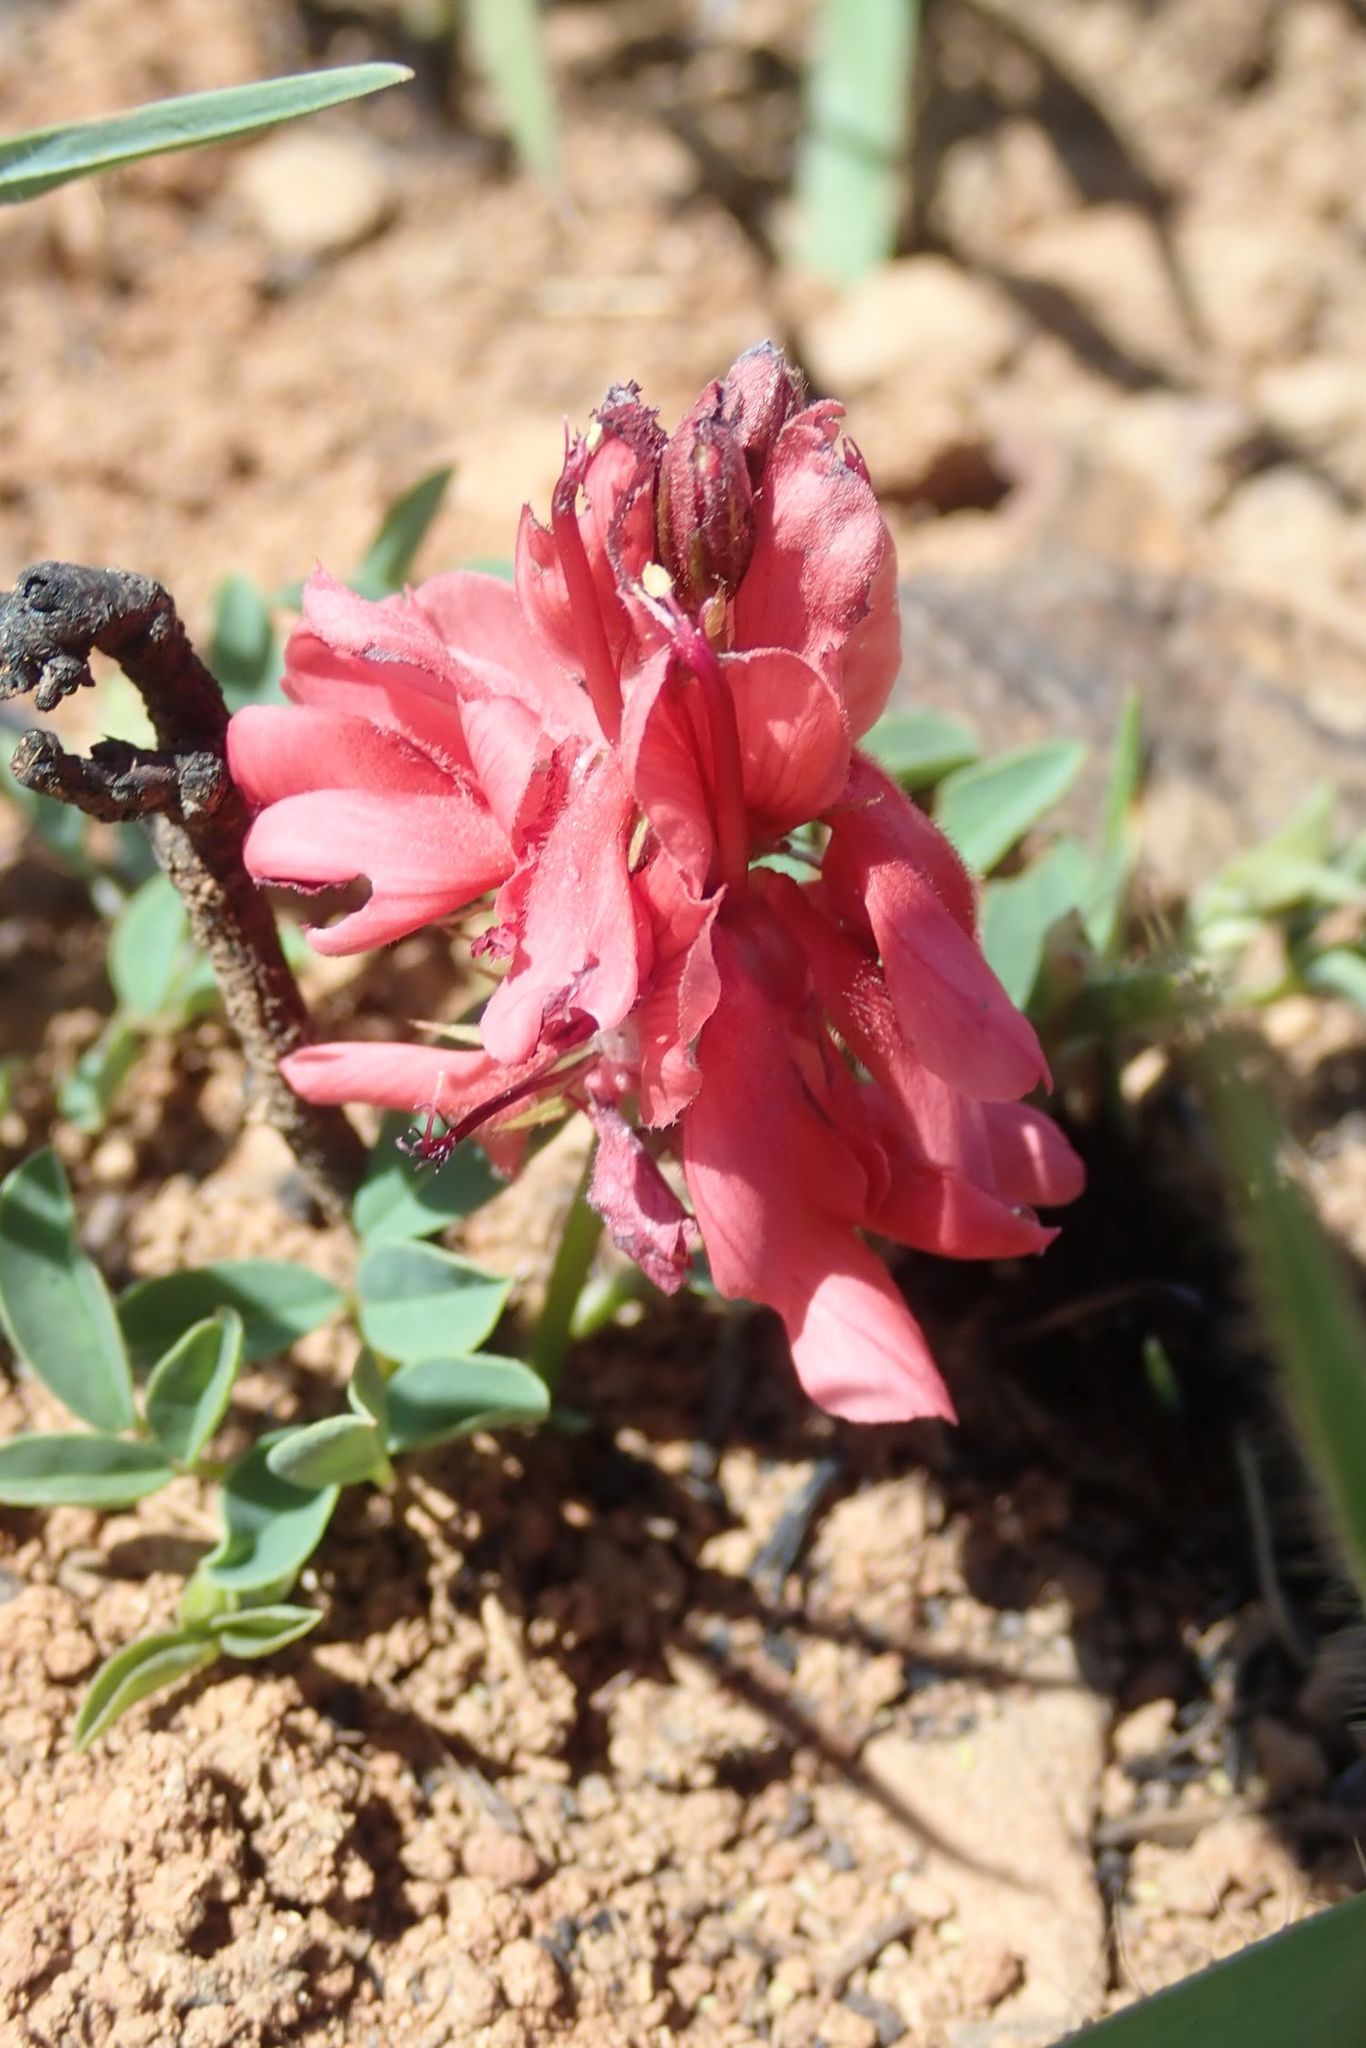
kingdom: Plantae
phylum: Tracheophyta
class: Magnoliopsida
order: Fabales
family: Fabaceae
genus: Indigofera
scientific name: Indigofera sanguinea
